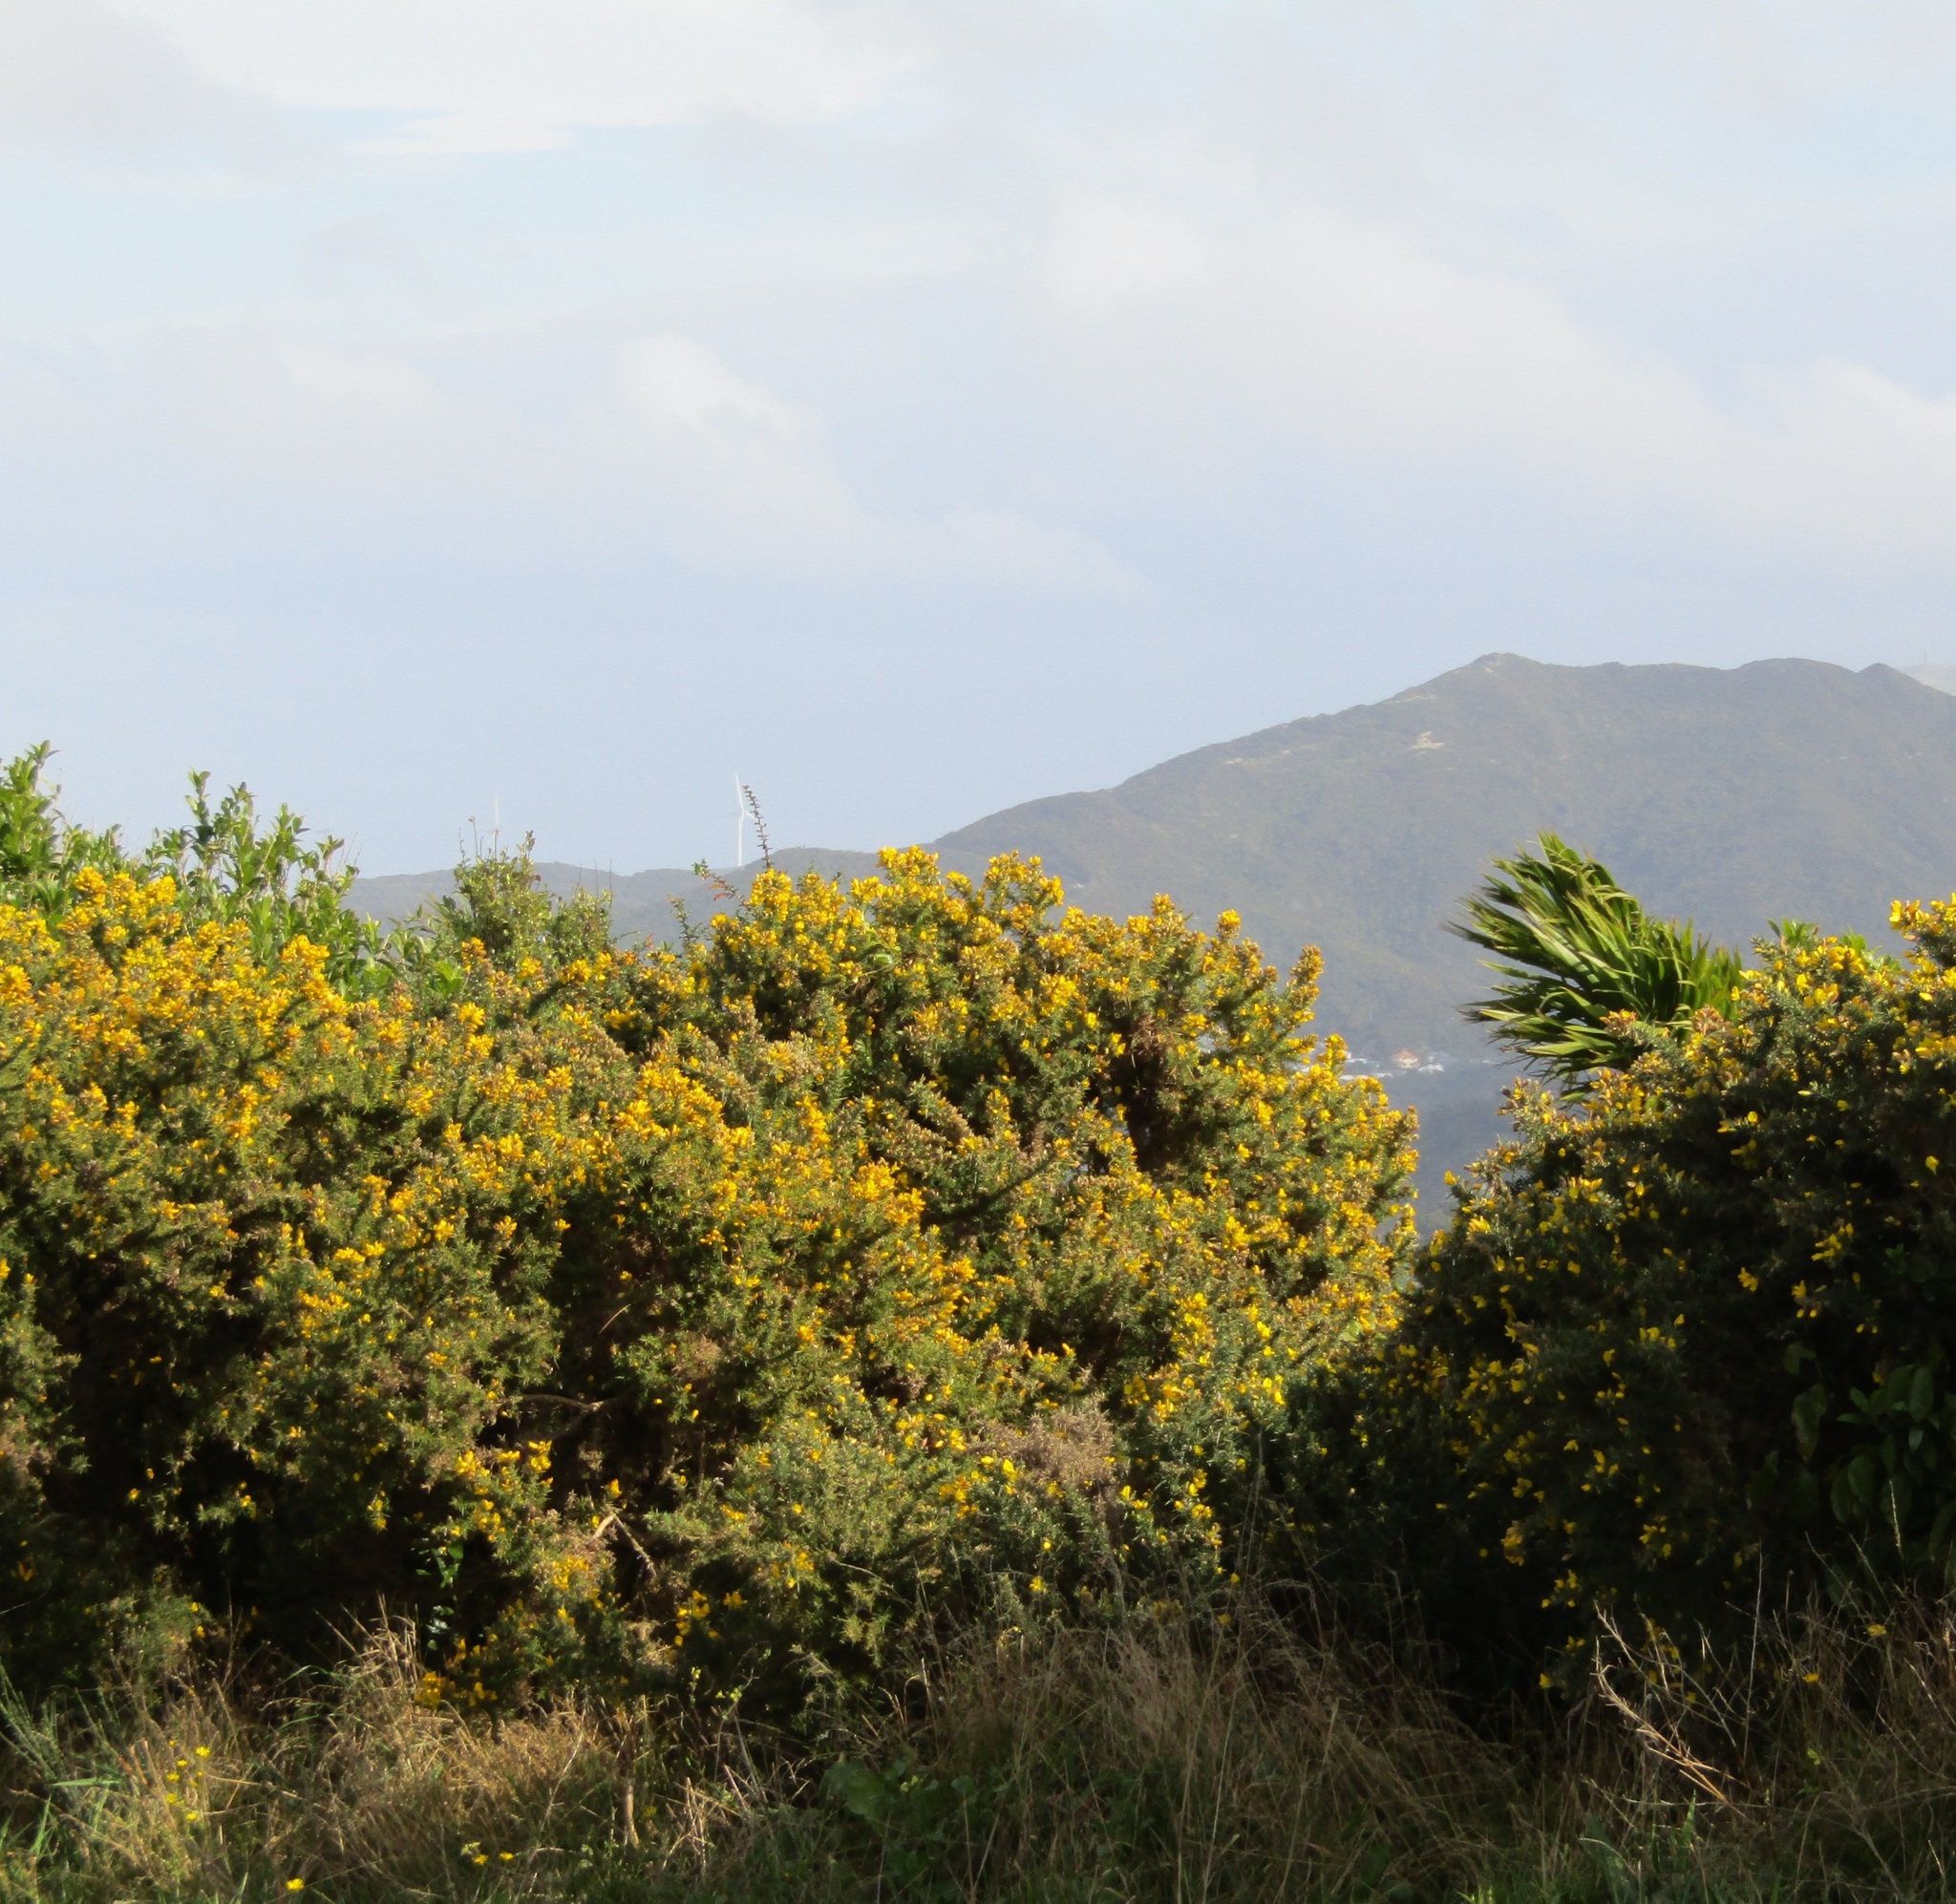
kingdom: Plantae
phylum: Tracheophyta
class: Magnoliopsida
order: Fabales
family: Fabaceae
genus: Ulex
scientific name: Ulex europaeus
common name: Common gorse
